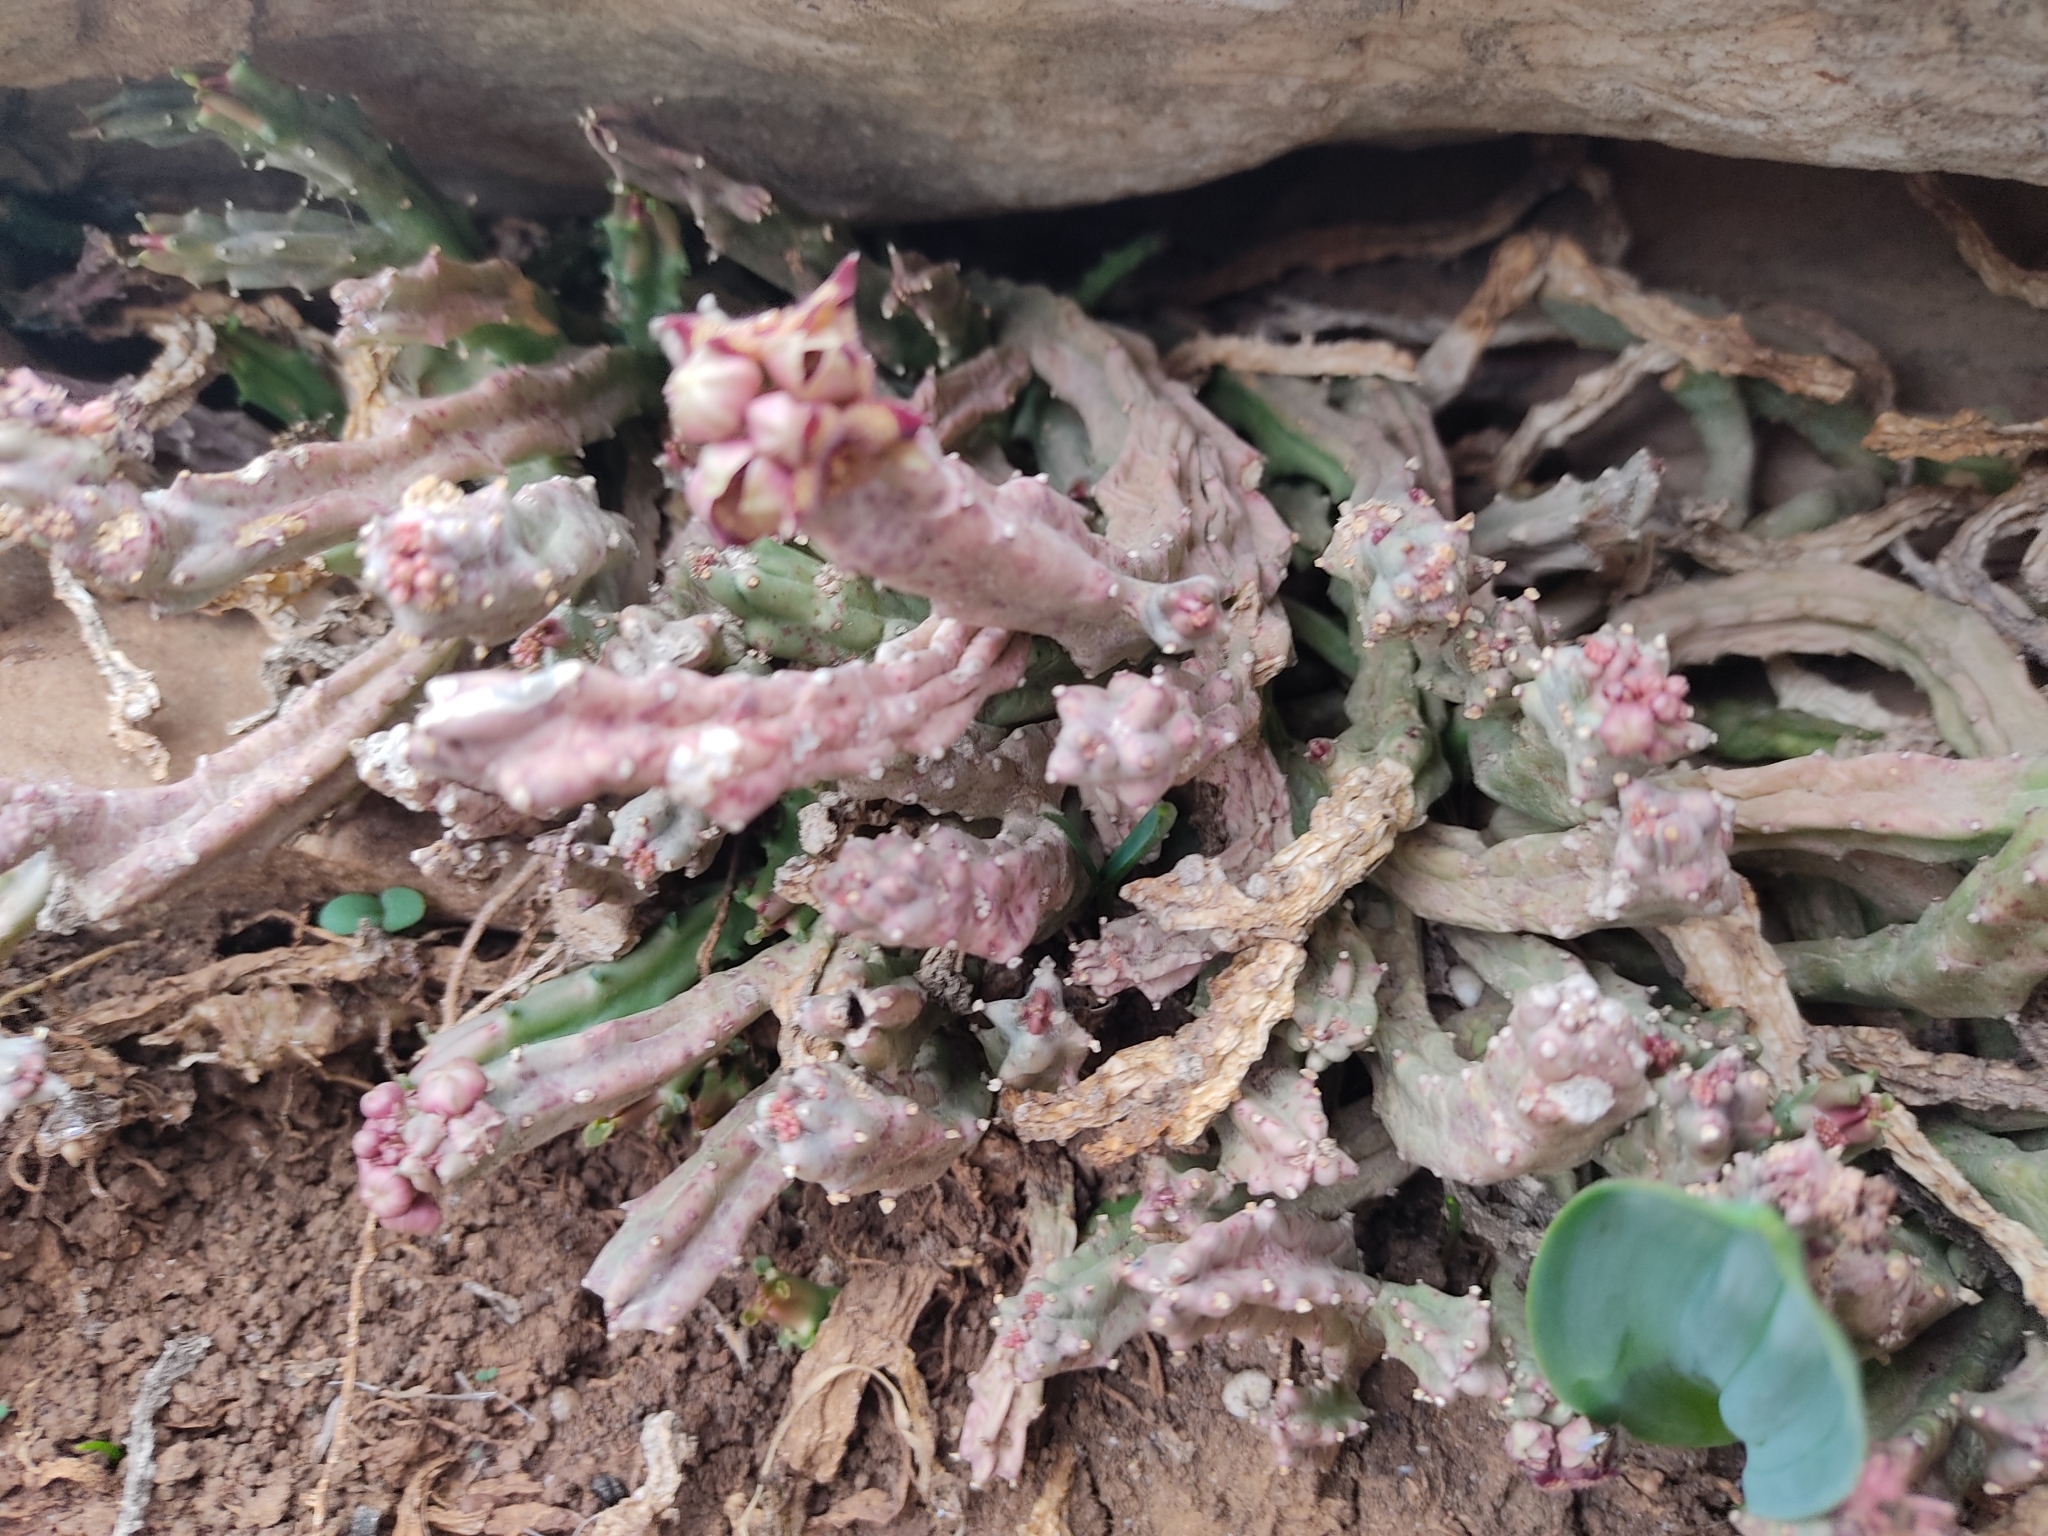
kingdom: Plantae
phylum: Tracheophyta
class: Magnoliopsida
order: Gentianales
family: Apocynaceae
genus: Ceropegia
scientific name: Ceropegia europaea
